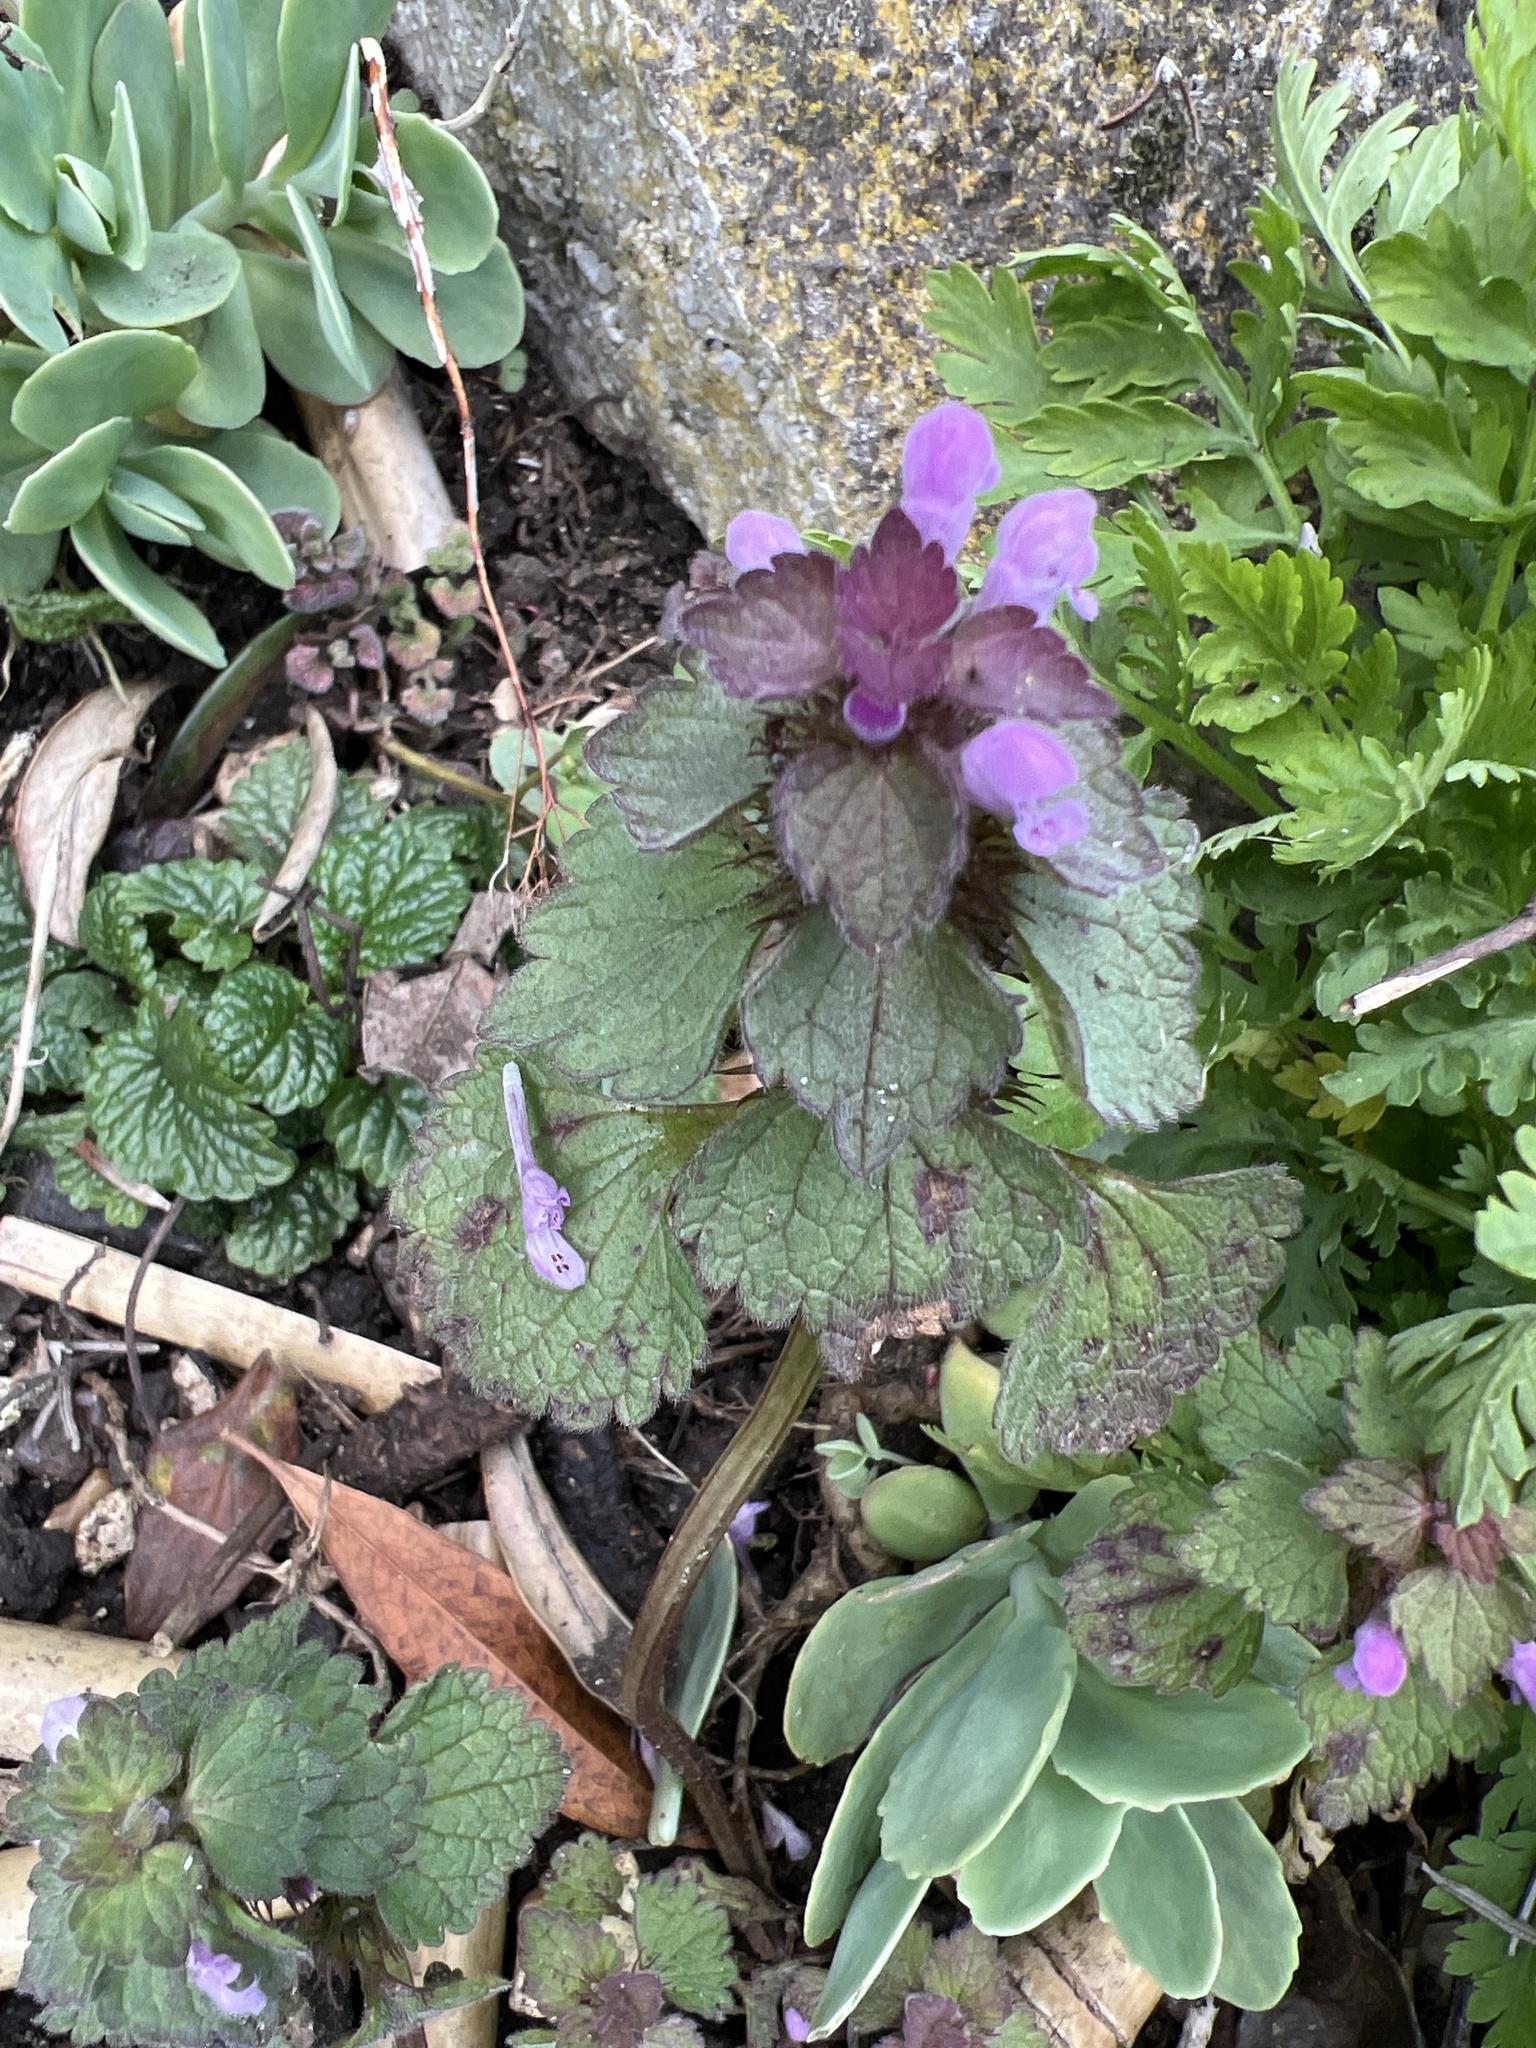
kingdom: Plantae
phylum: Tracheophyta
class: Magnoliopsida
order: Lamiales
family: Lamiaceae
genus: Lamium
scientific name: Lamium purpureum
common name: Red dead-nettle
